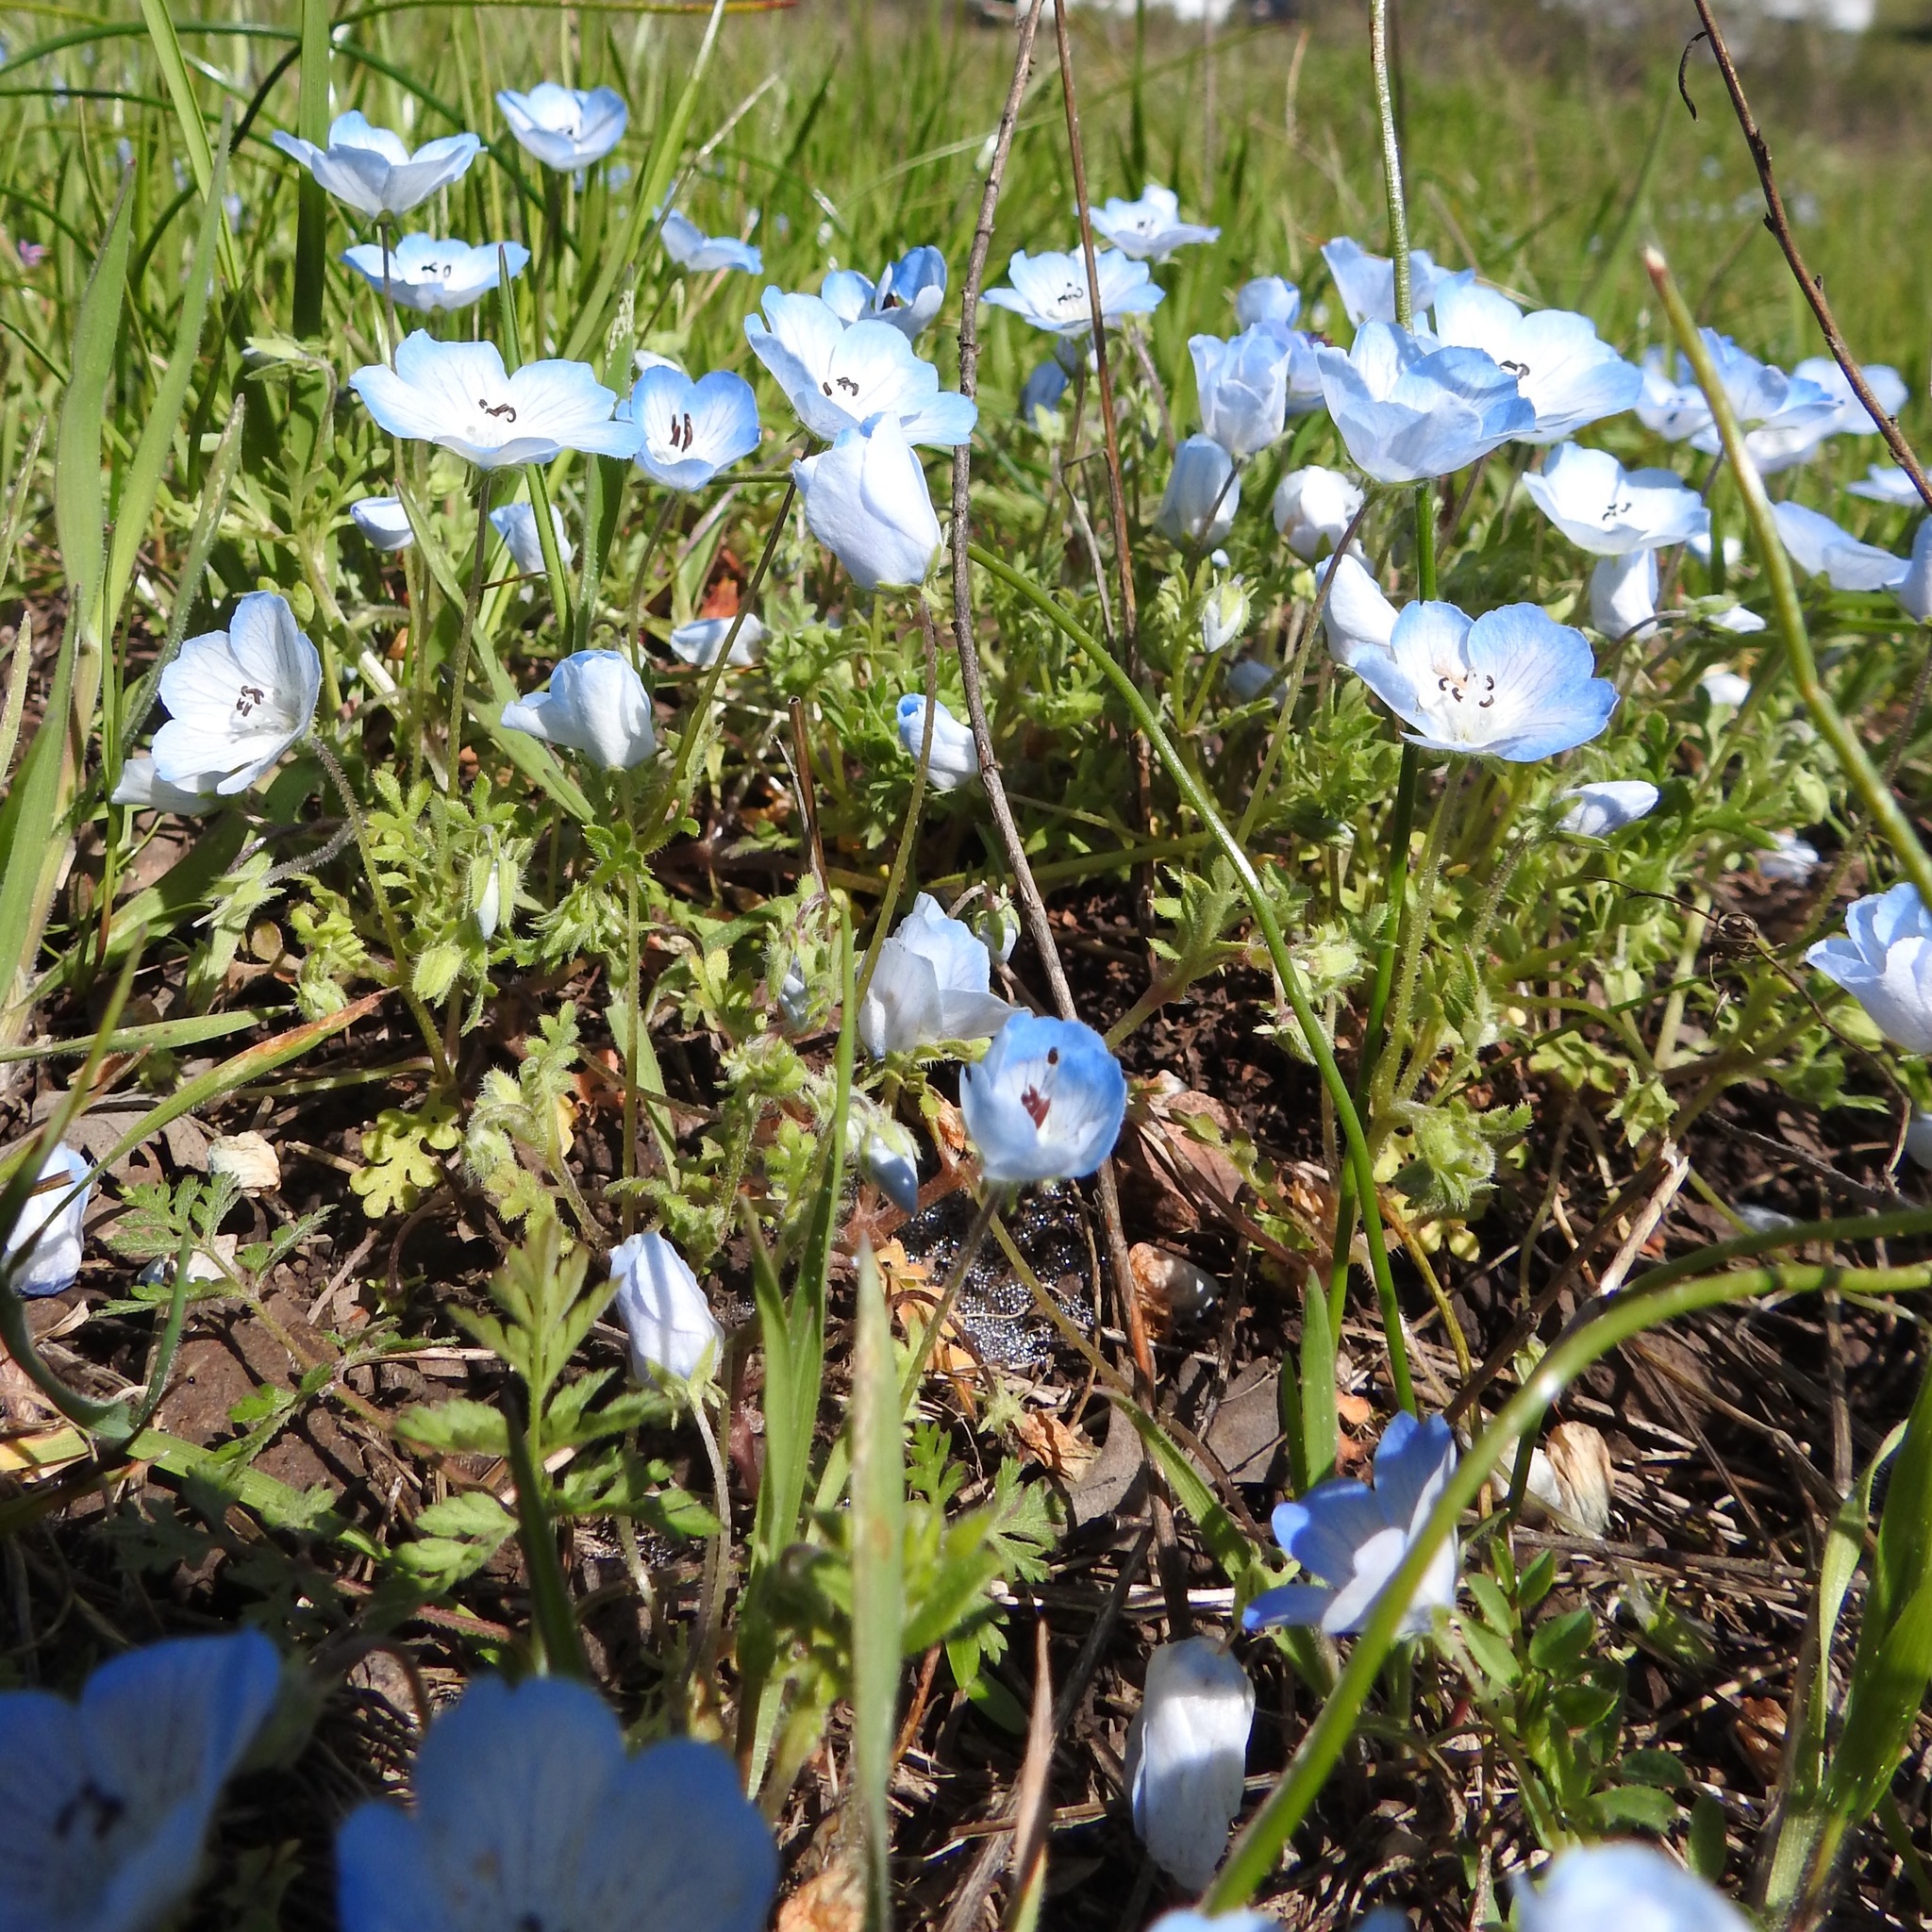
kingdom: Plantae
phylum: Tracheophyta
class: Magnoliopsida
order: Boraginales
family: Hydrophyllaceae
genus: Nemophila
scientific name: Nemophila menziesii
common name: Baby's-blue-eyes
